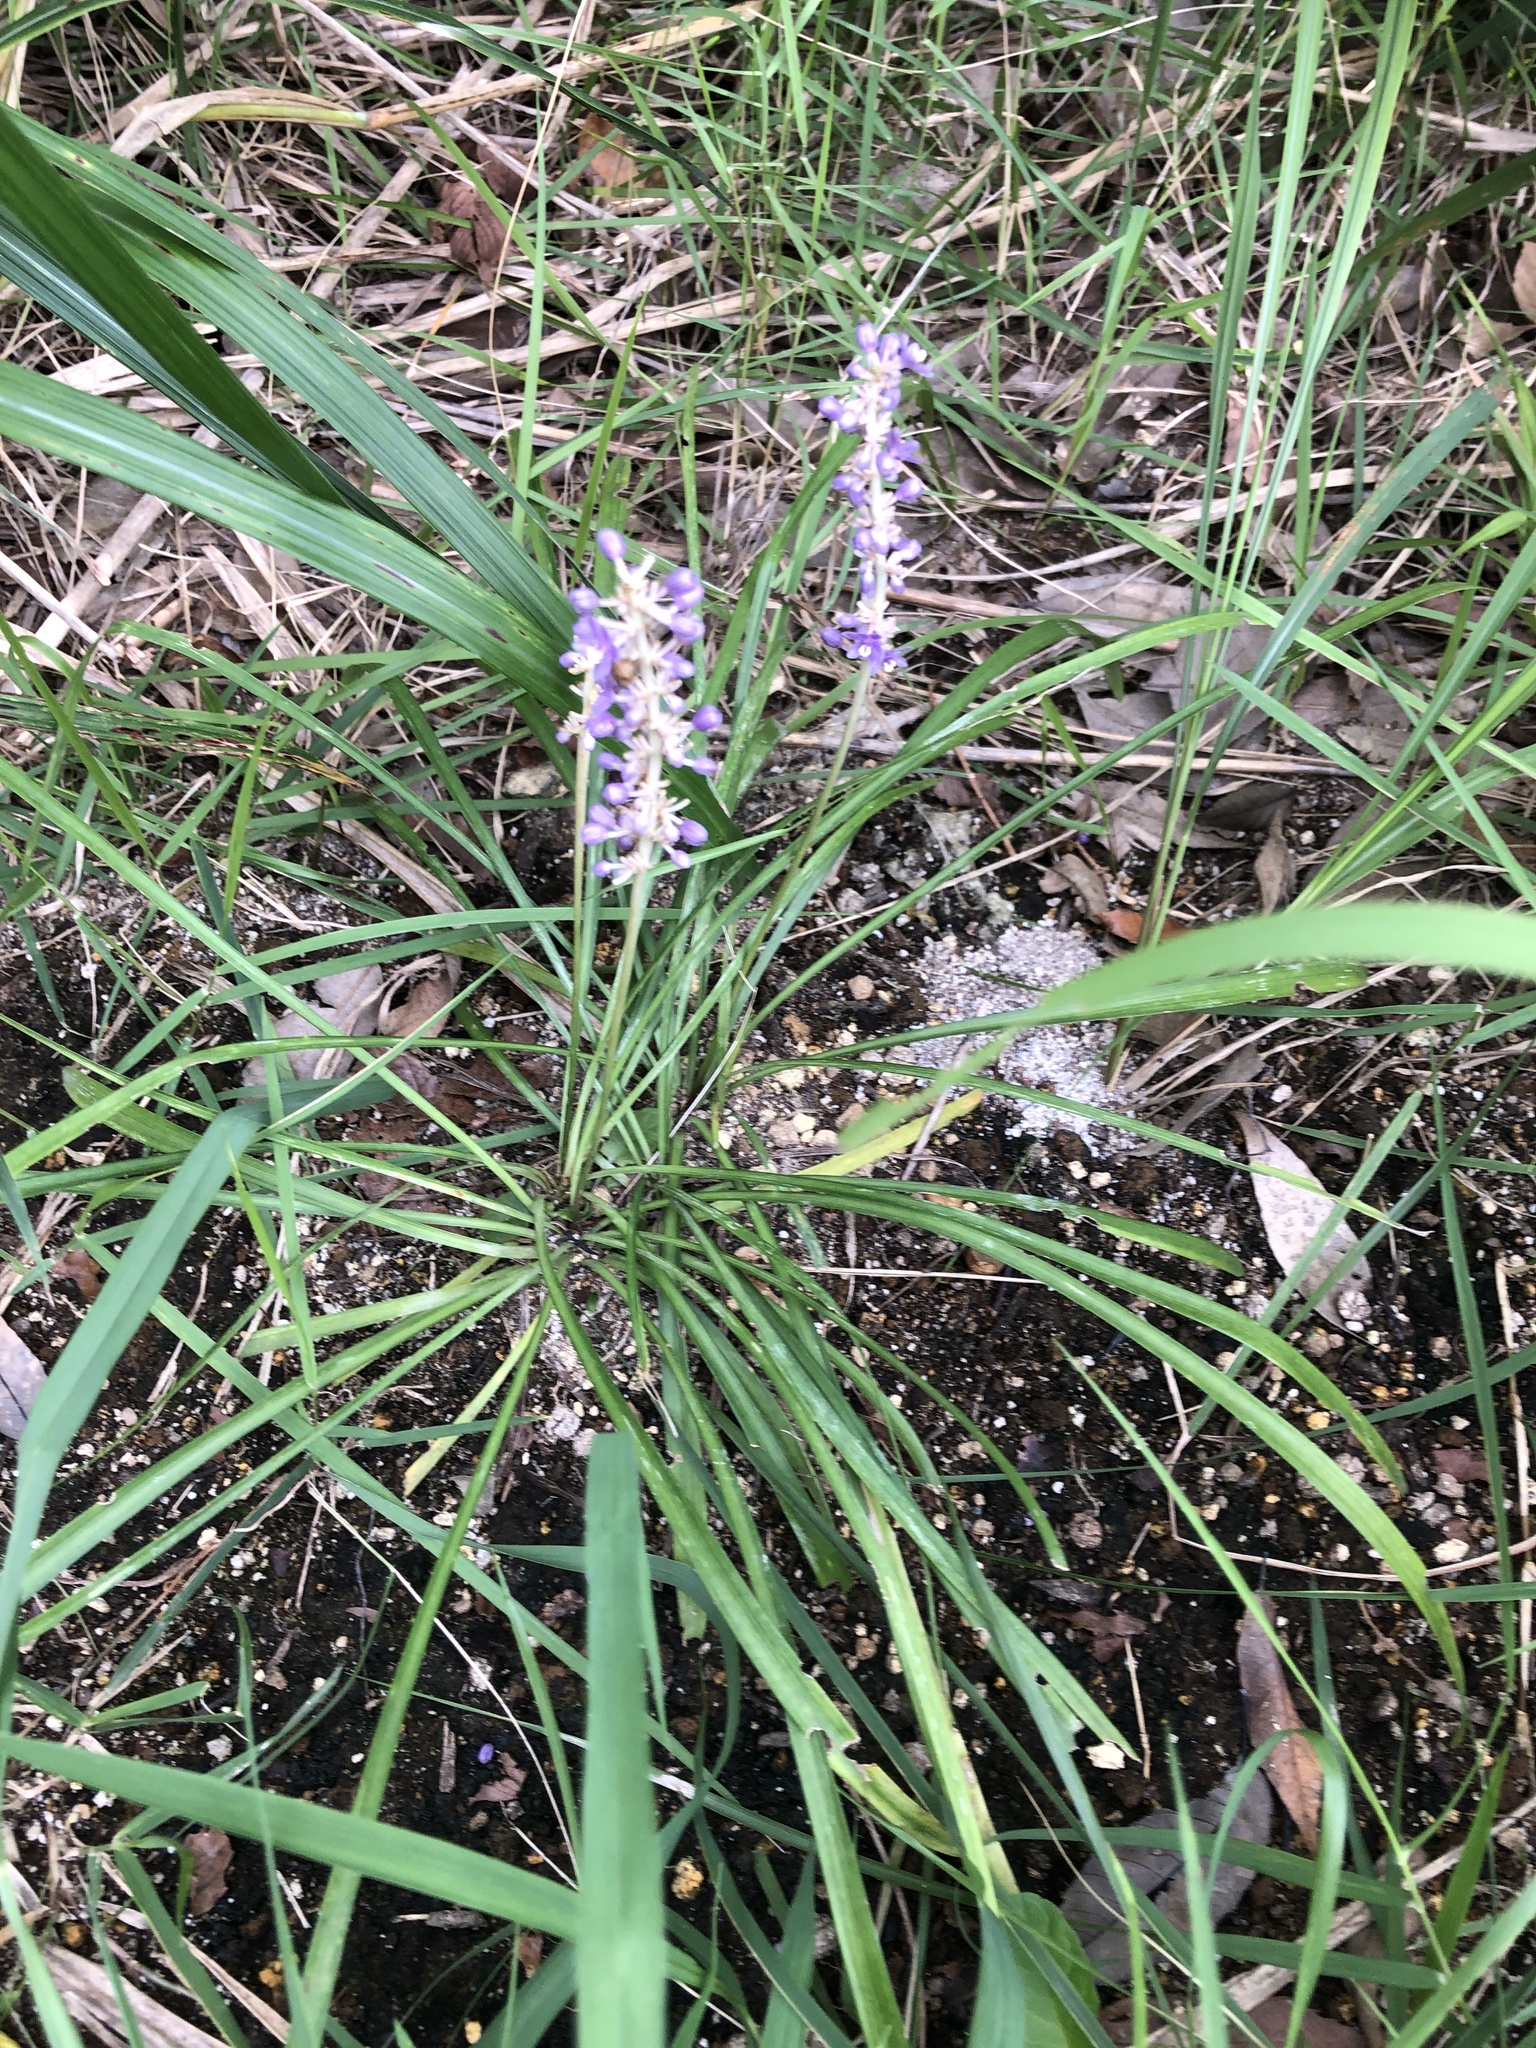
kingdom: Plantae
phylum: Tracheophyta
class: Liliopsida
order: Asparagales
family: Asparagaceae
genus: Liriope
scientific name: Liriope muscari
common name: Big blue lilyturf
